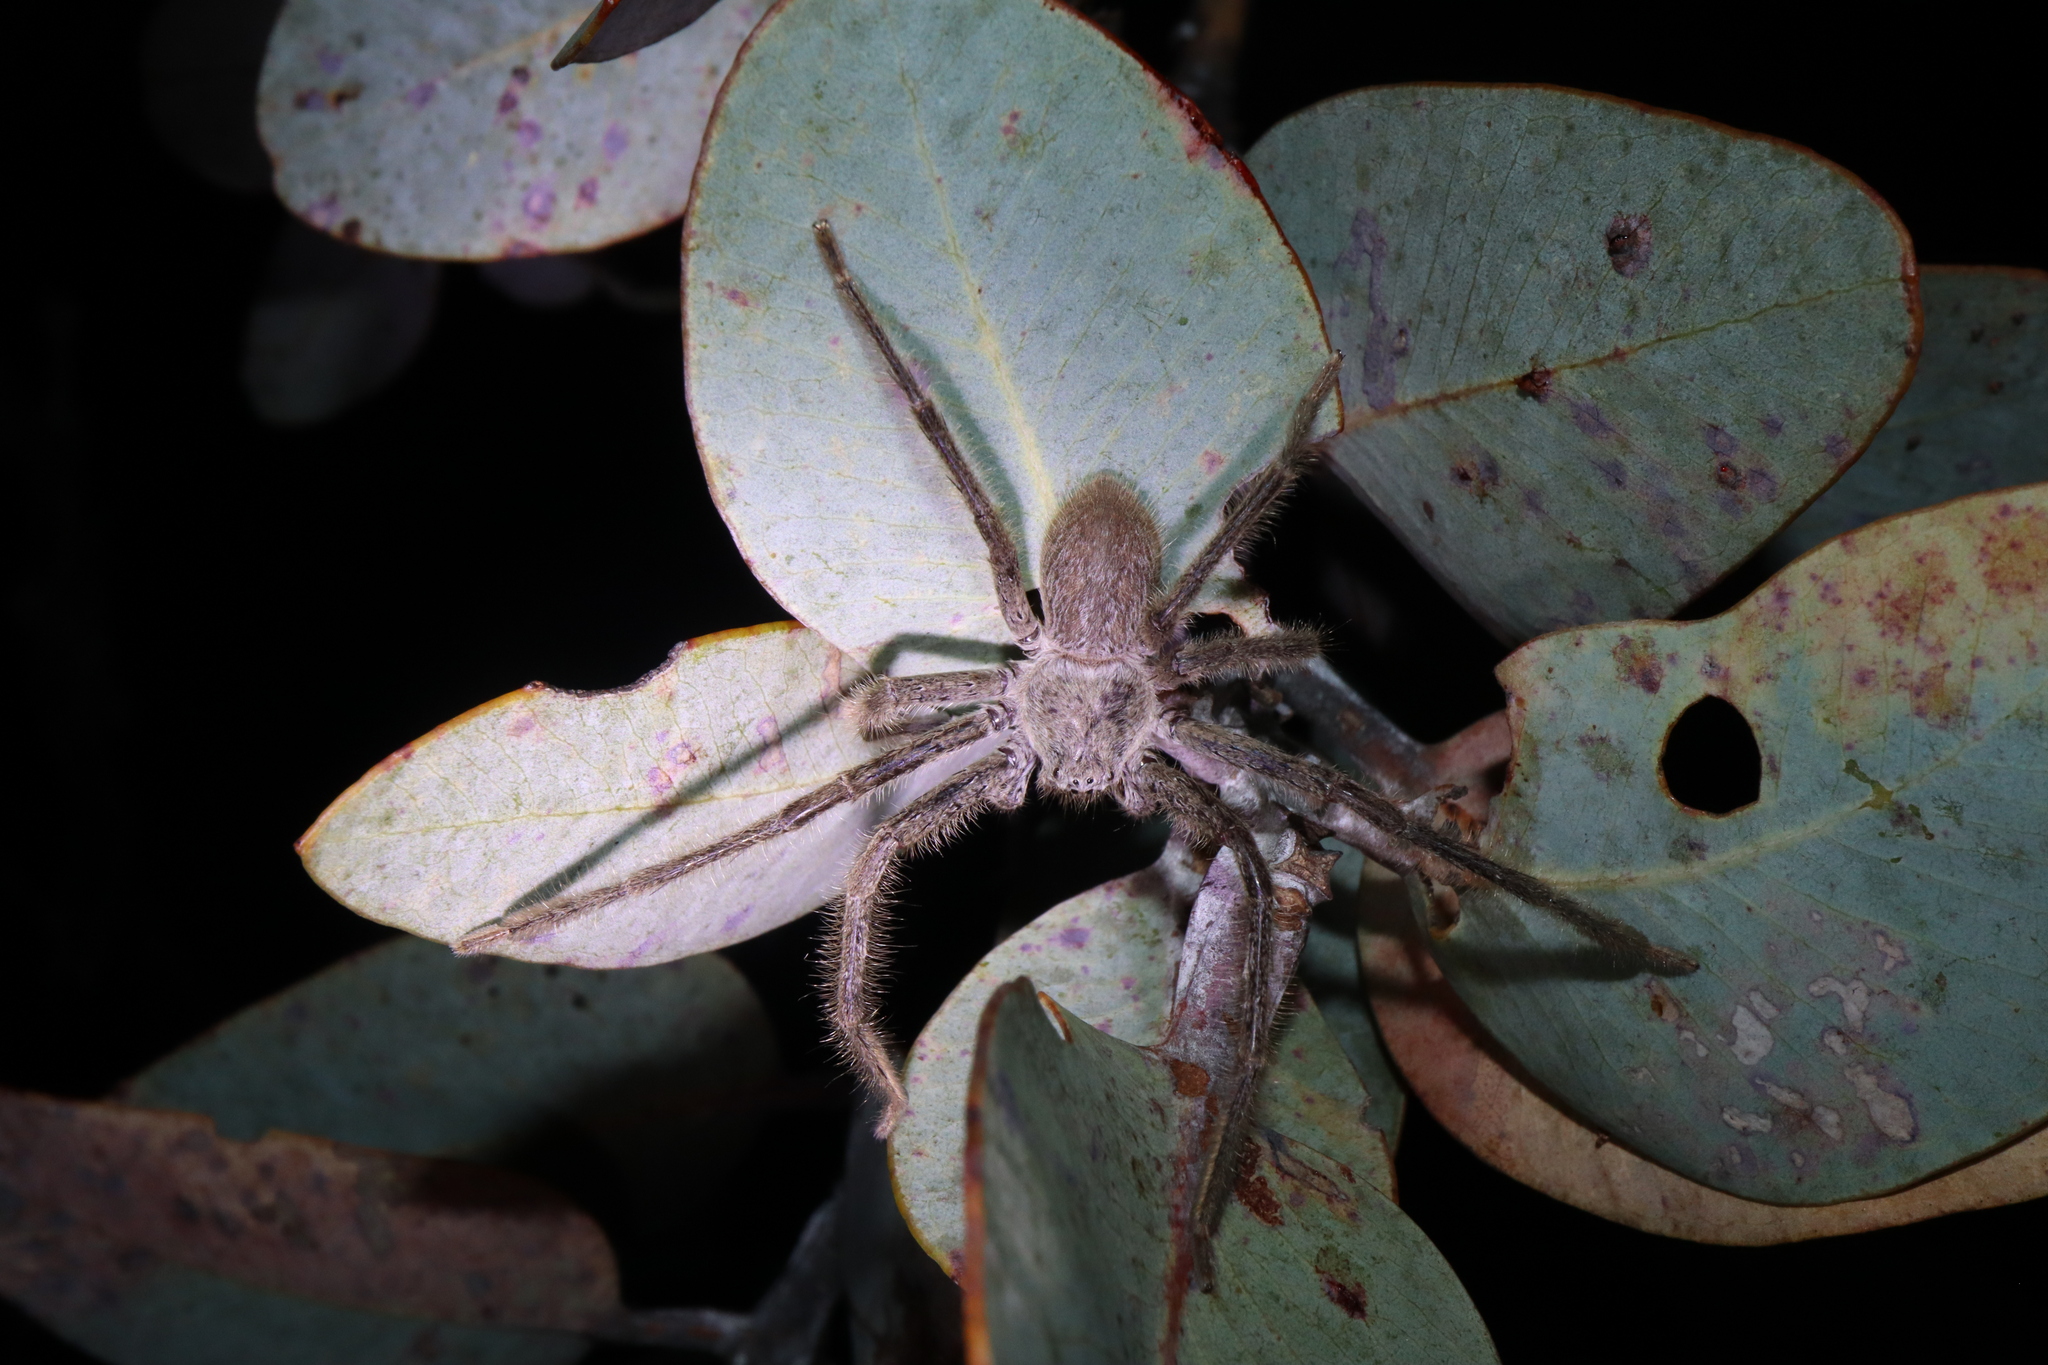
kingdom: Animalia
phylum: Arthropoda
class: Arachnida
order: Araneae
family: Sparassidae
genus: Isopeda
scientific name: Isopeda leishmanni
